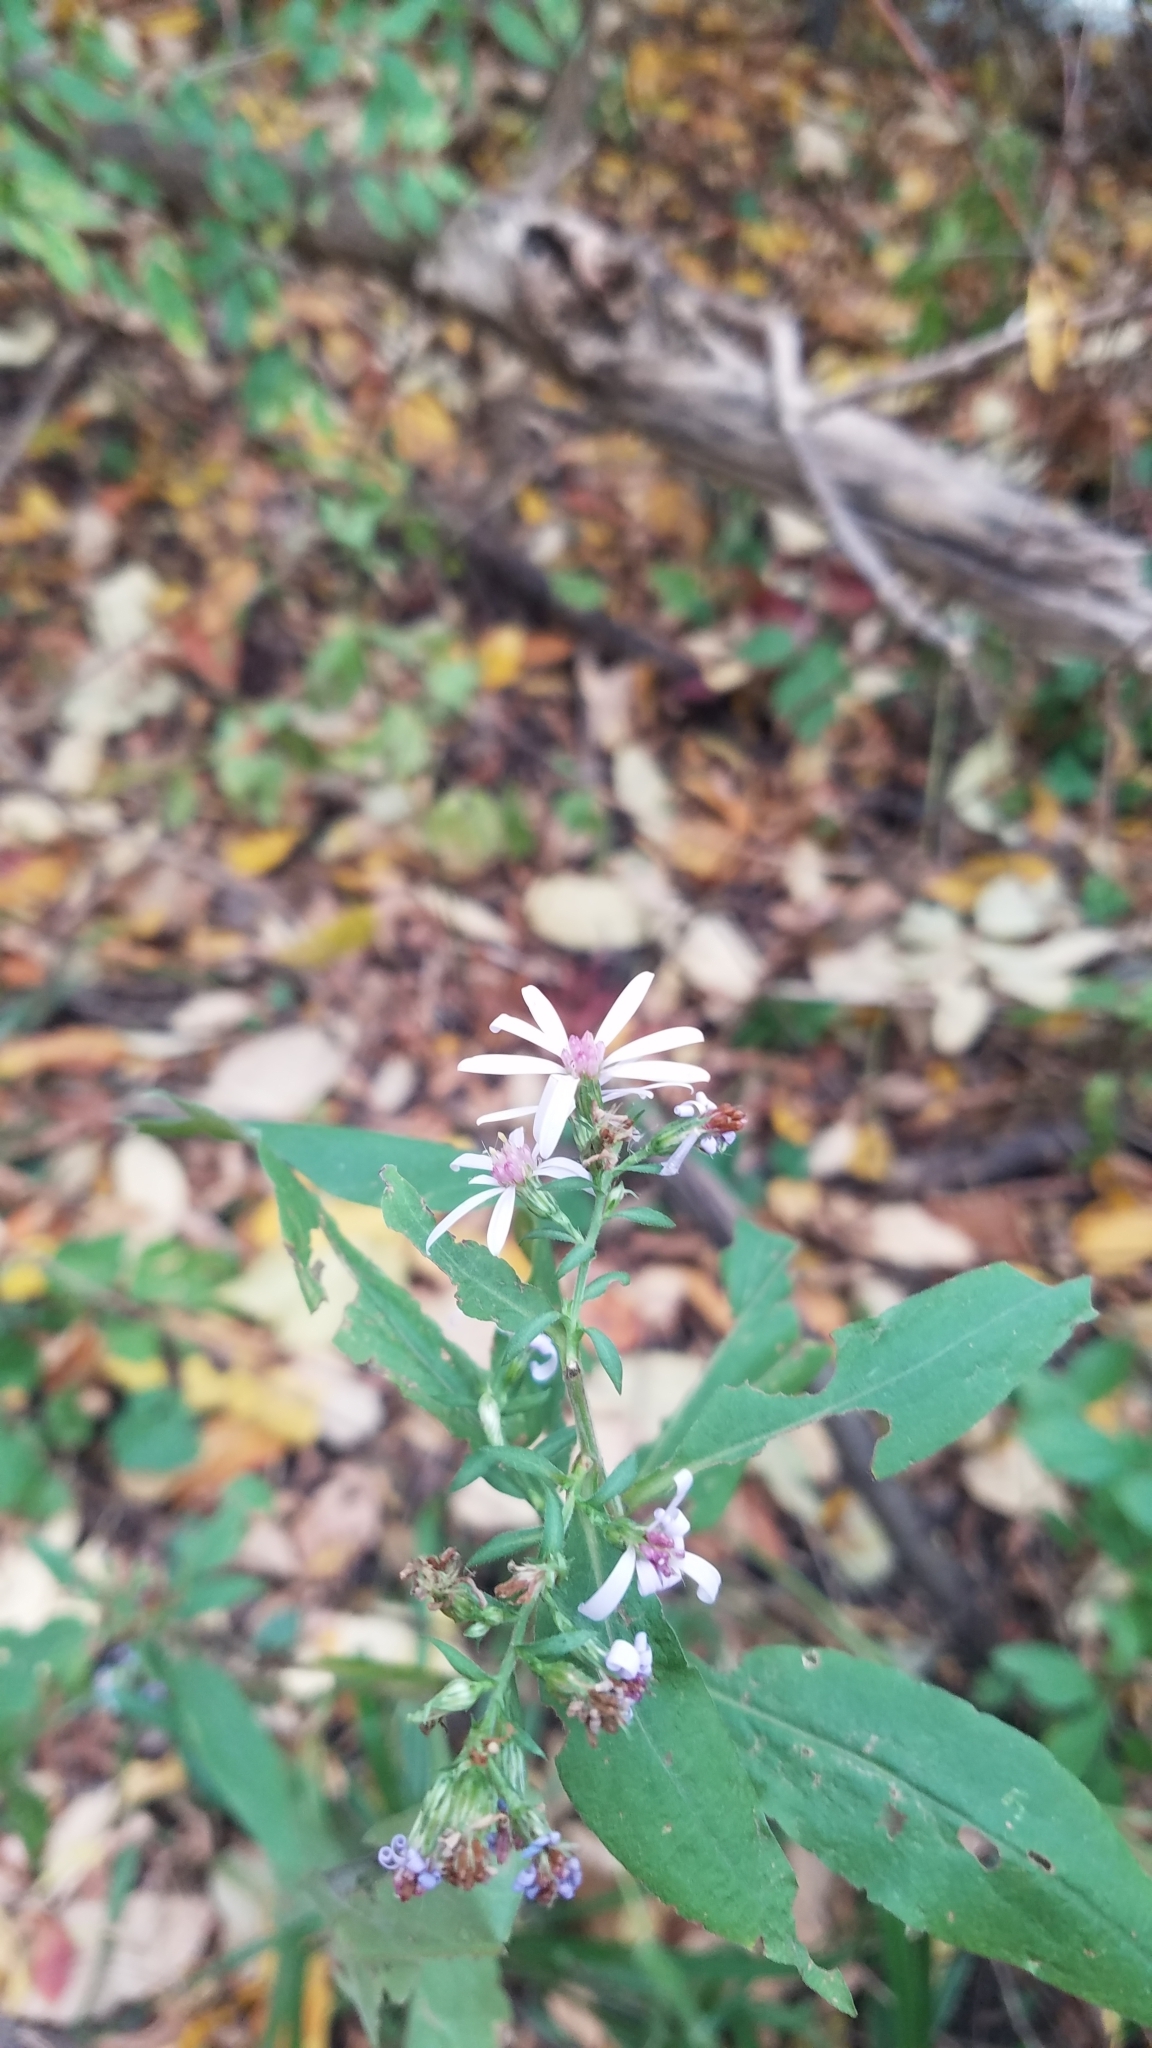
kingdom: Plantae
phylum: Tracheophyta
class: Magnoliopsida
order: Asterales
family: Asteraceae
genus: Symphyotrichum
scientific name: Symphyotrichum drummondii
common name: Drummond's aster
